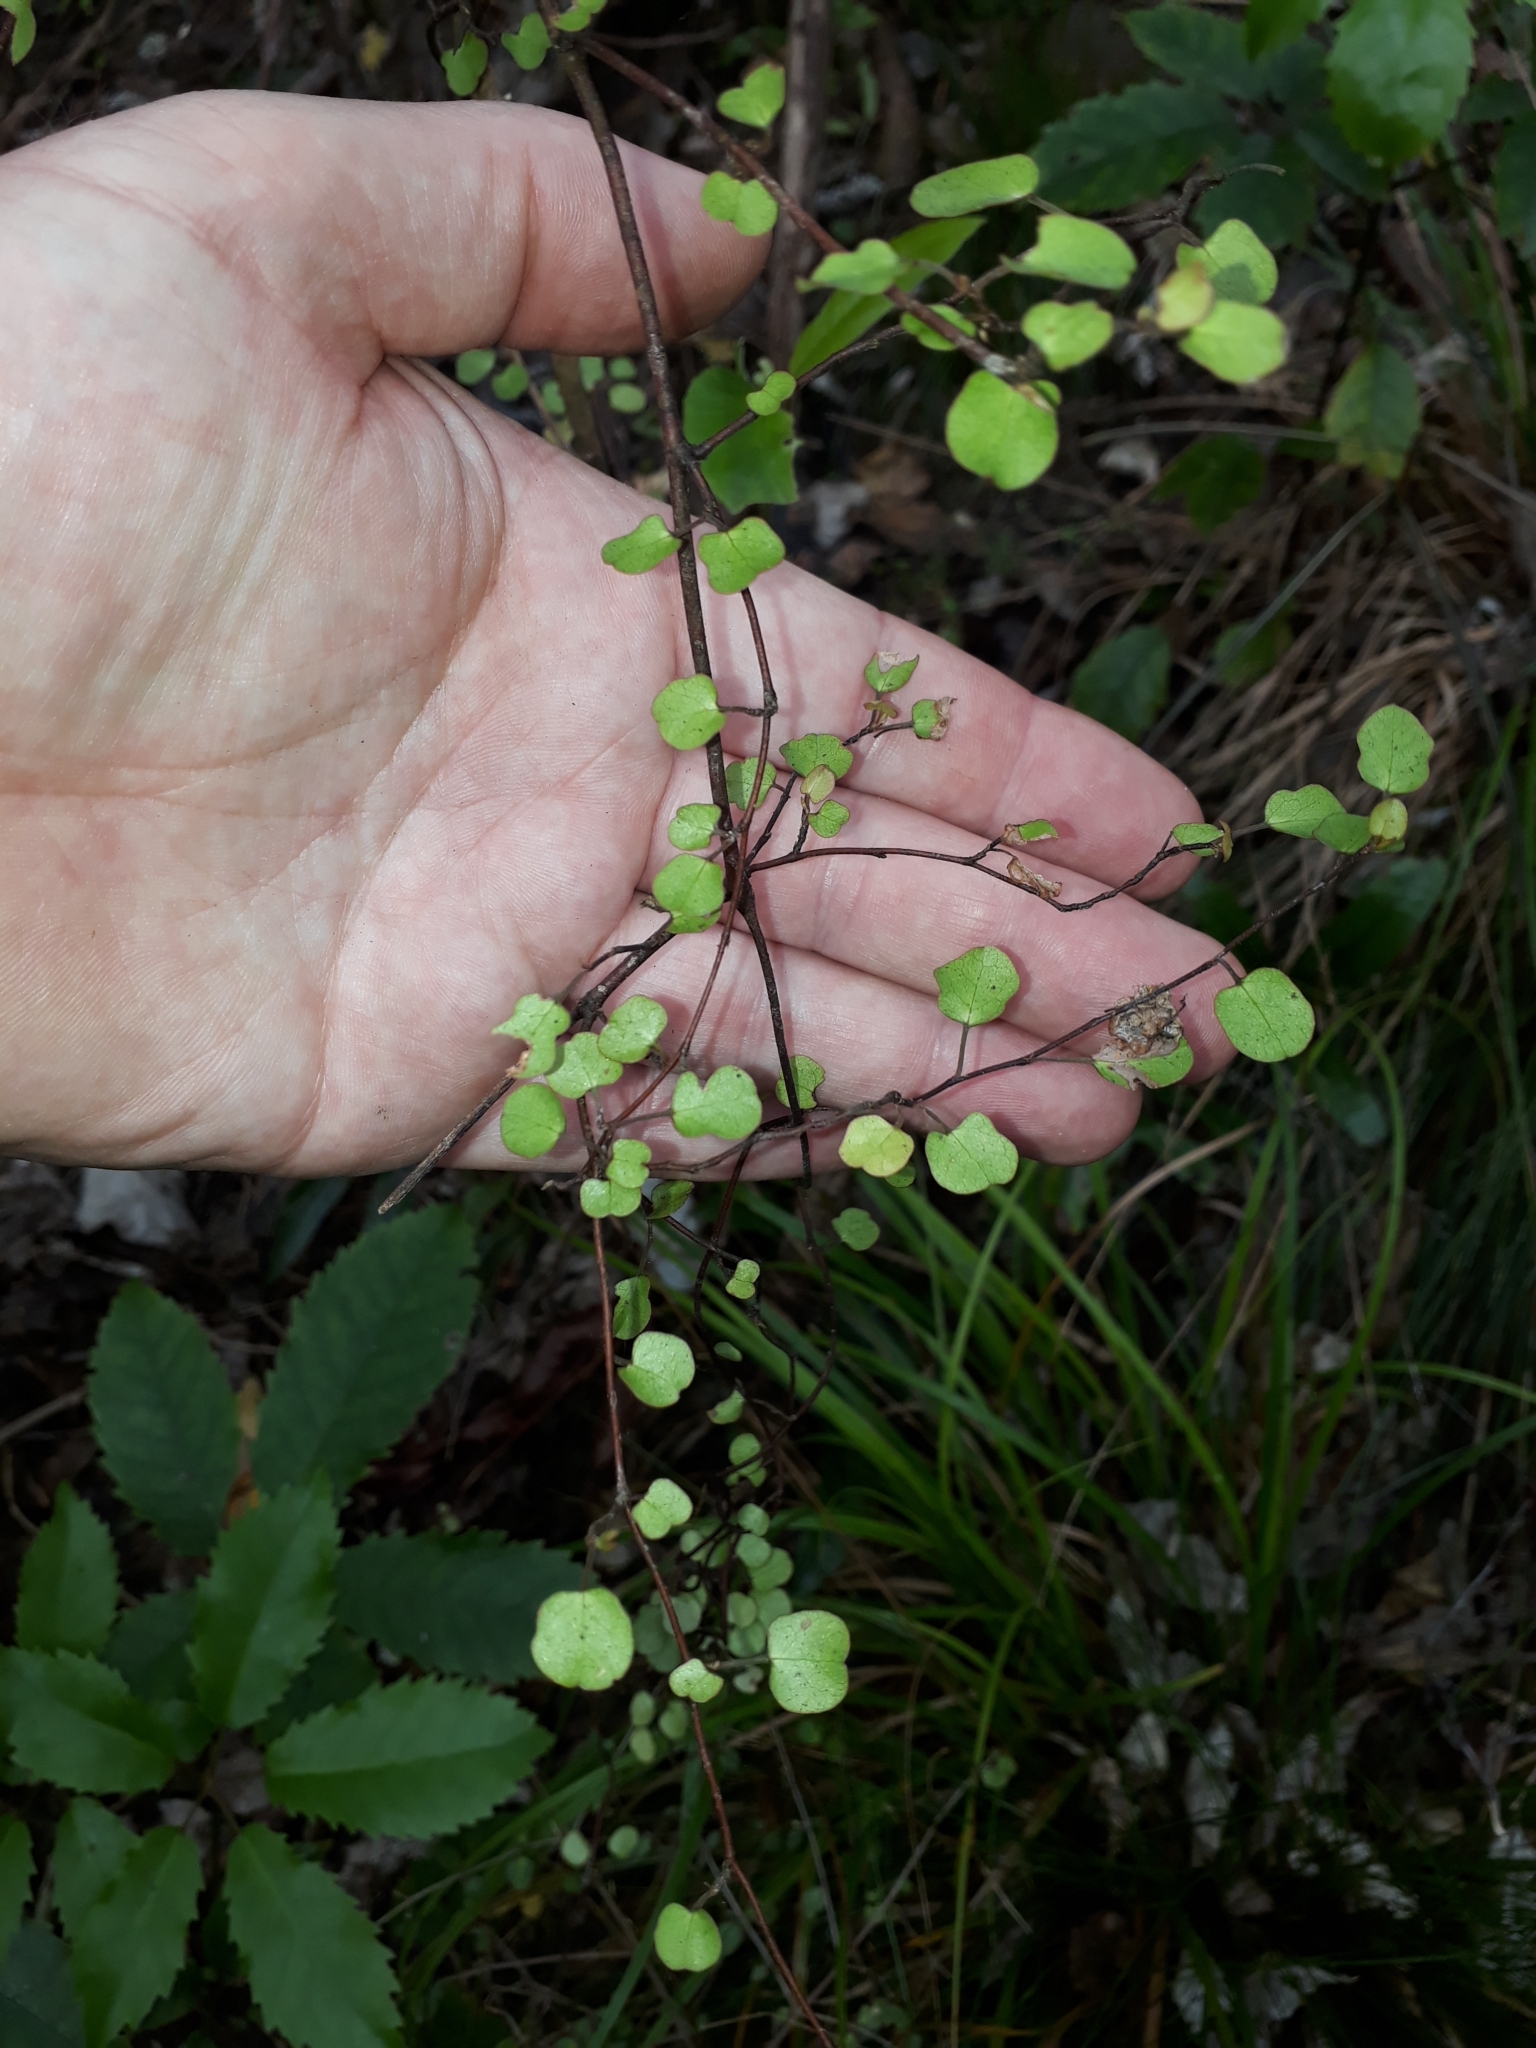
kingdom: Plantae
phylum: Tracheophyta
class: Magnoliopsida
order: Caryophyllales
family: Polygonaceae
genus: Muehlenbeckia
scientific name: Muehlenbeckia complexa
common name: Wireplant
